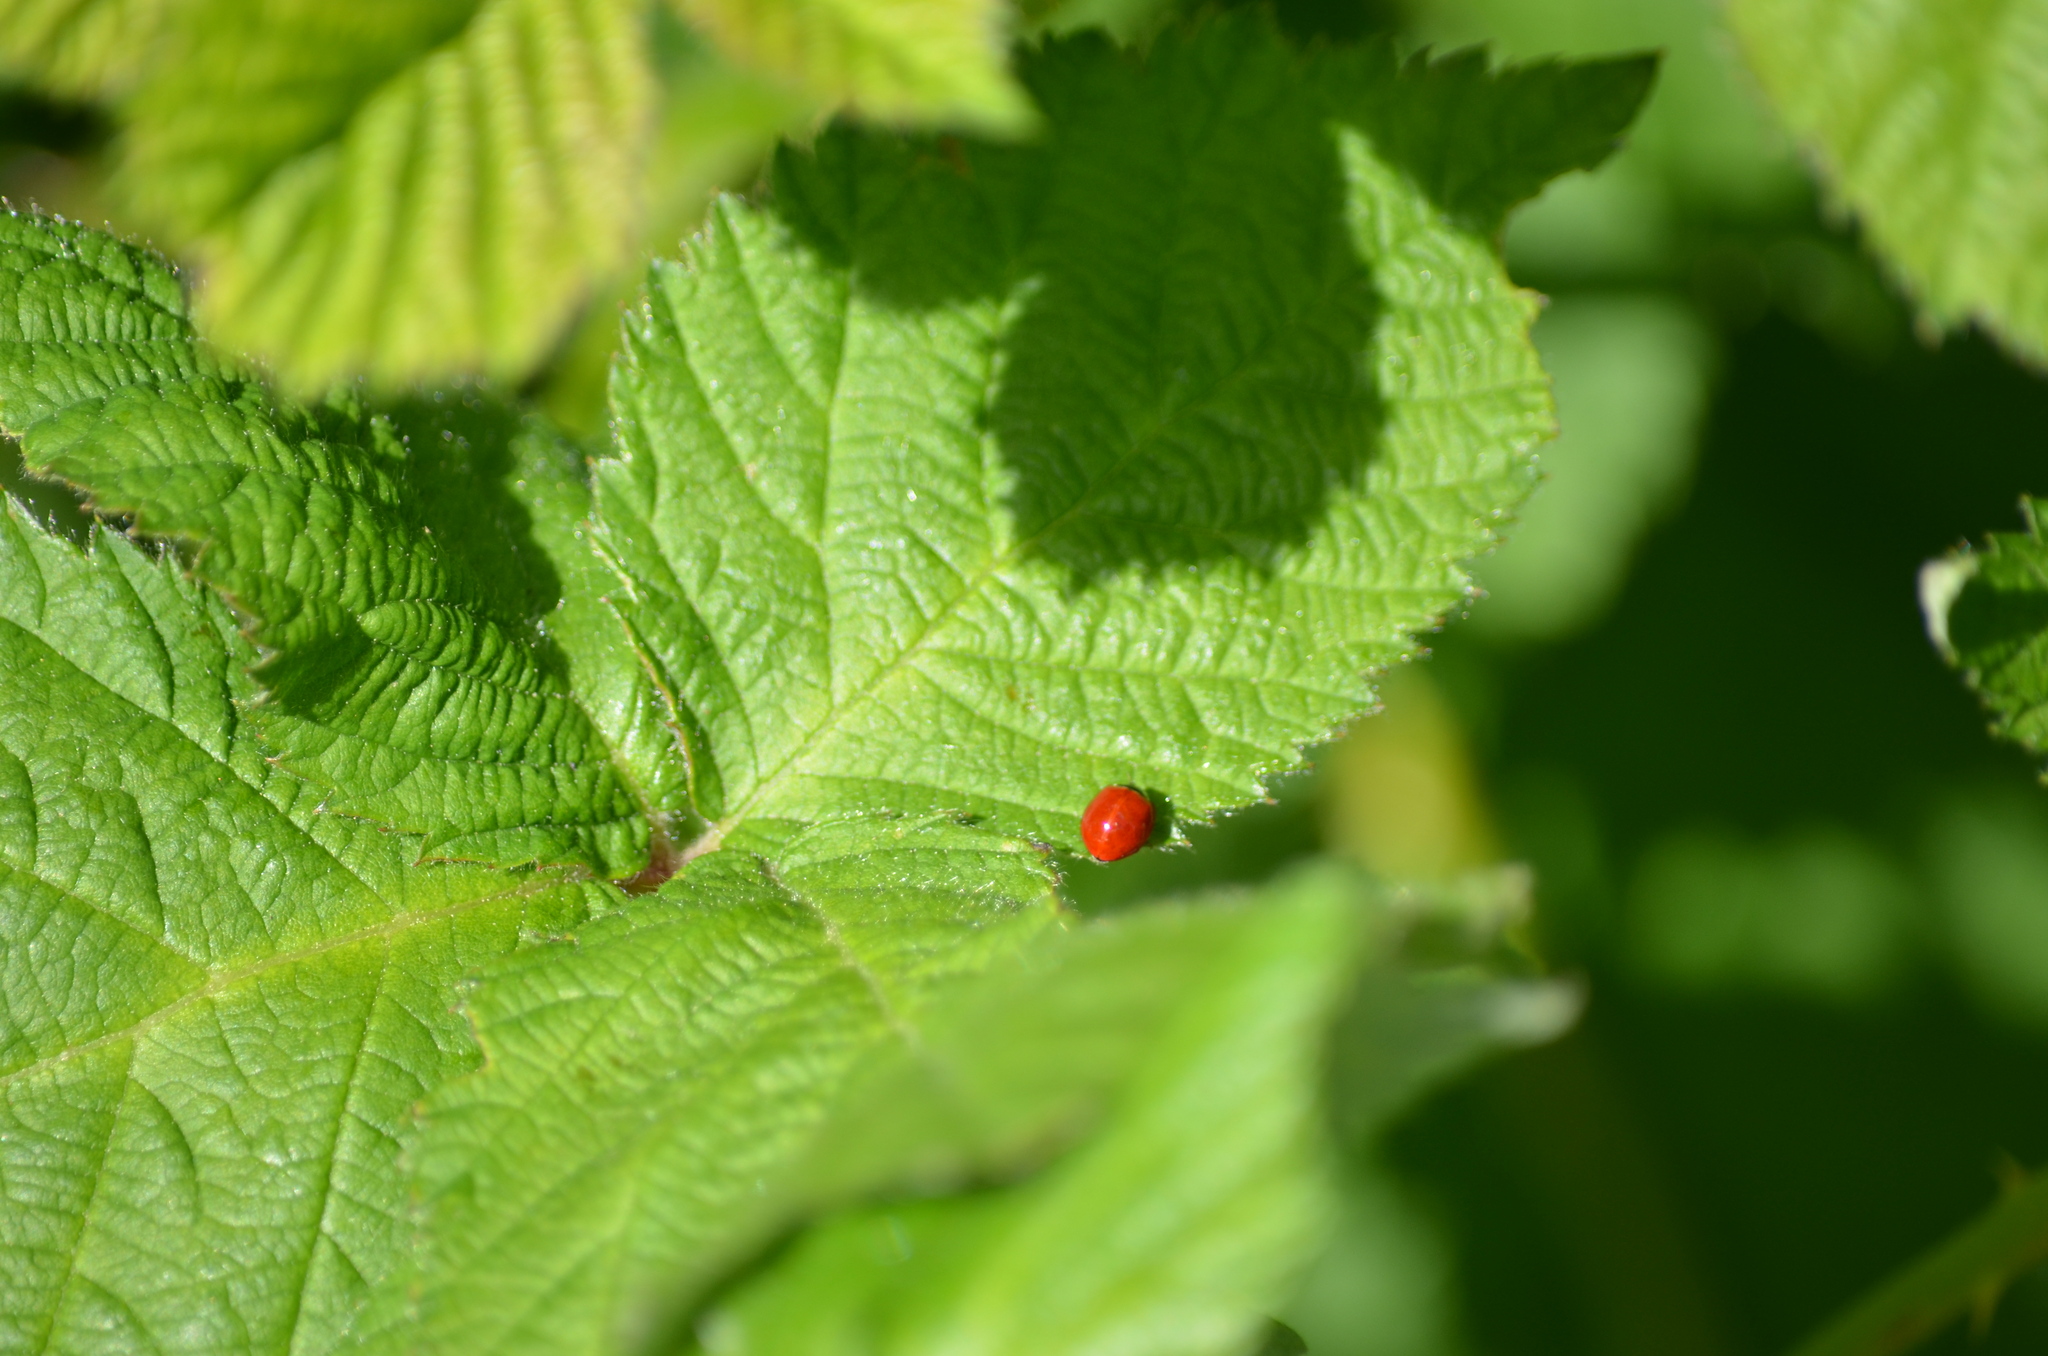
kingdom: Animalia
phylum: Arthropoda
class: Insecta
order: Coleoptera
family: Coccinellidae
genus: Cycloneda
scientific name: Cycloneda polita
